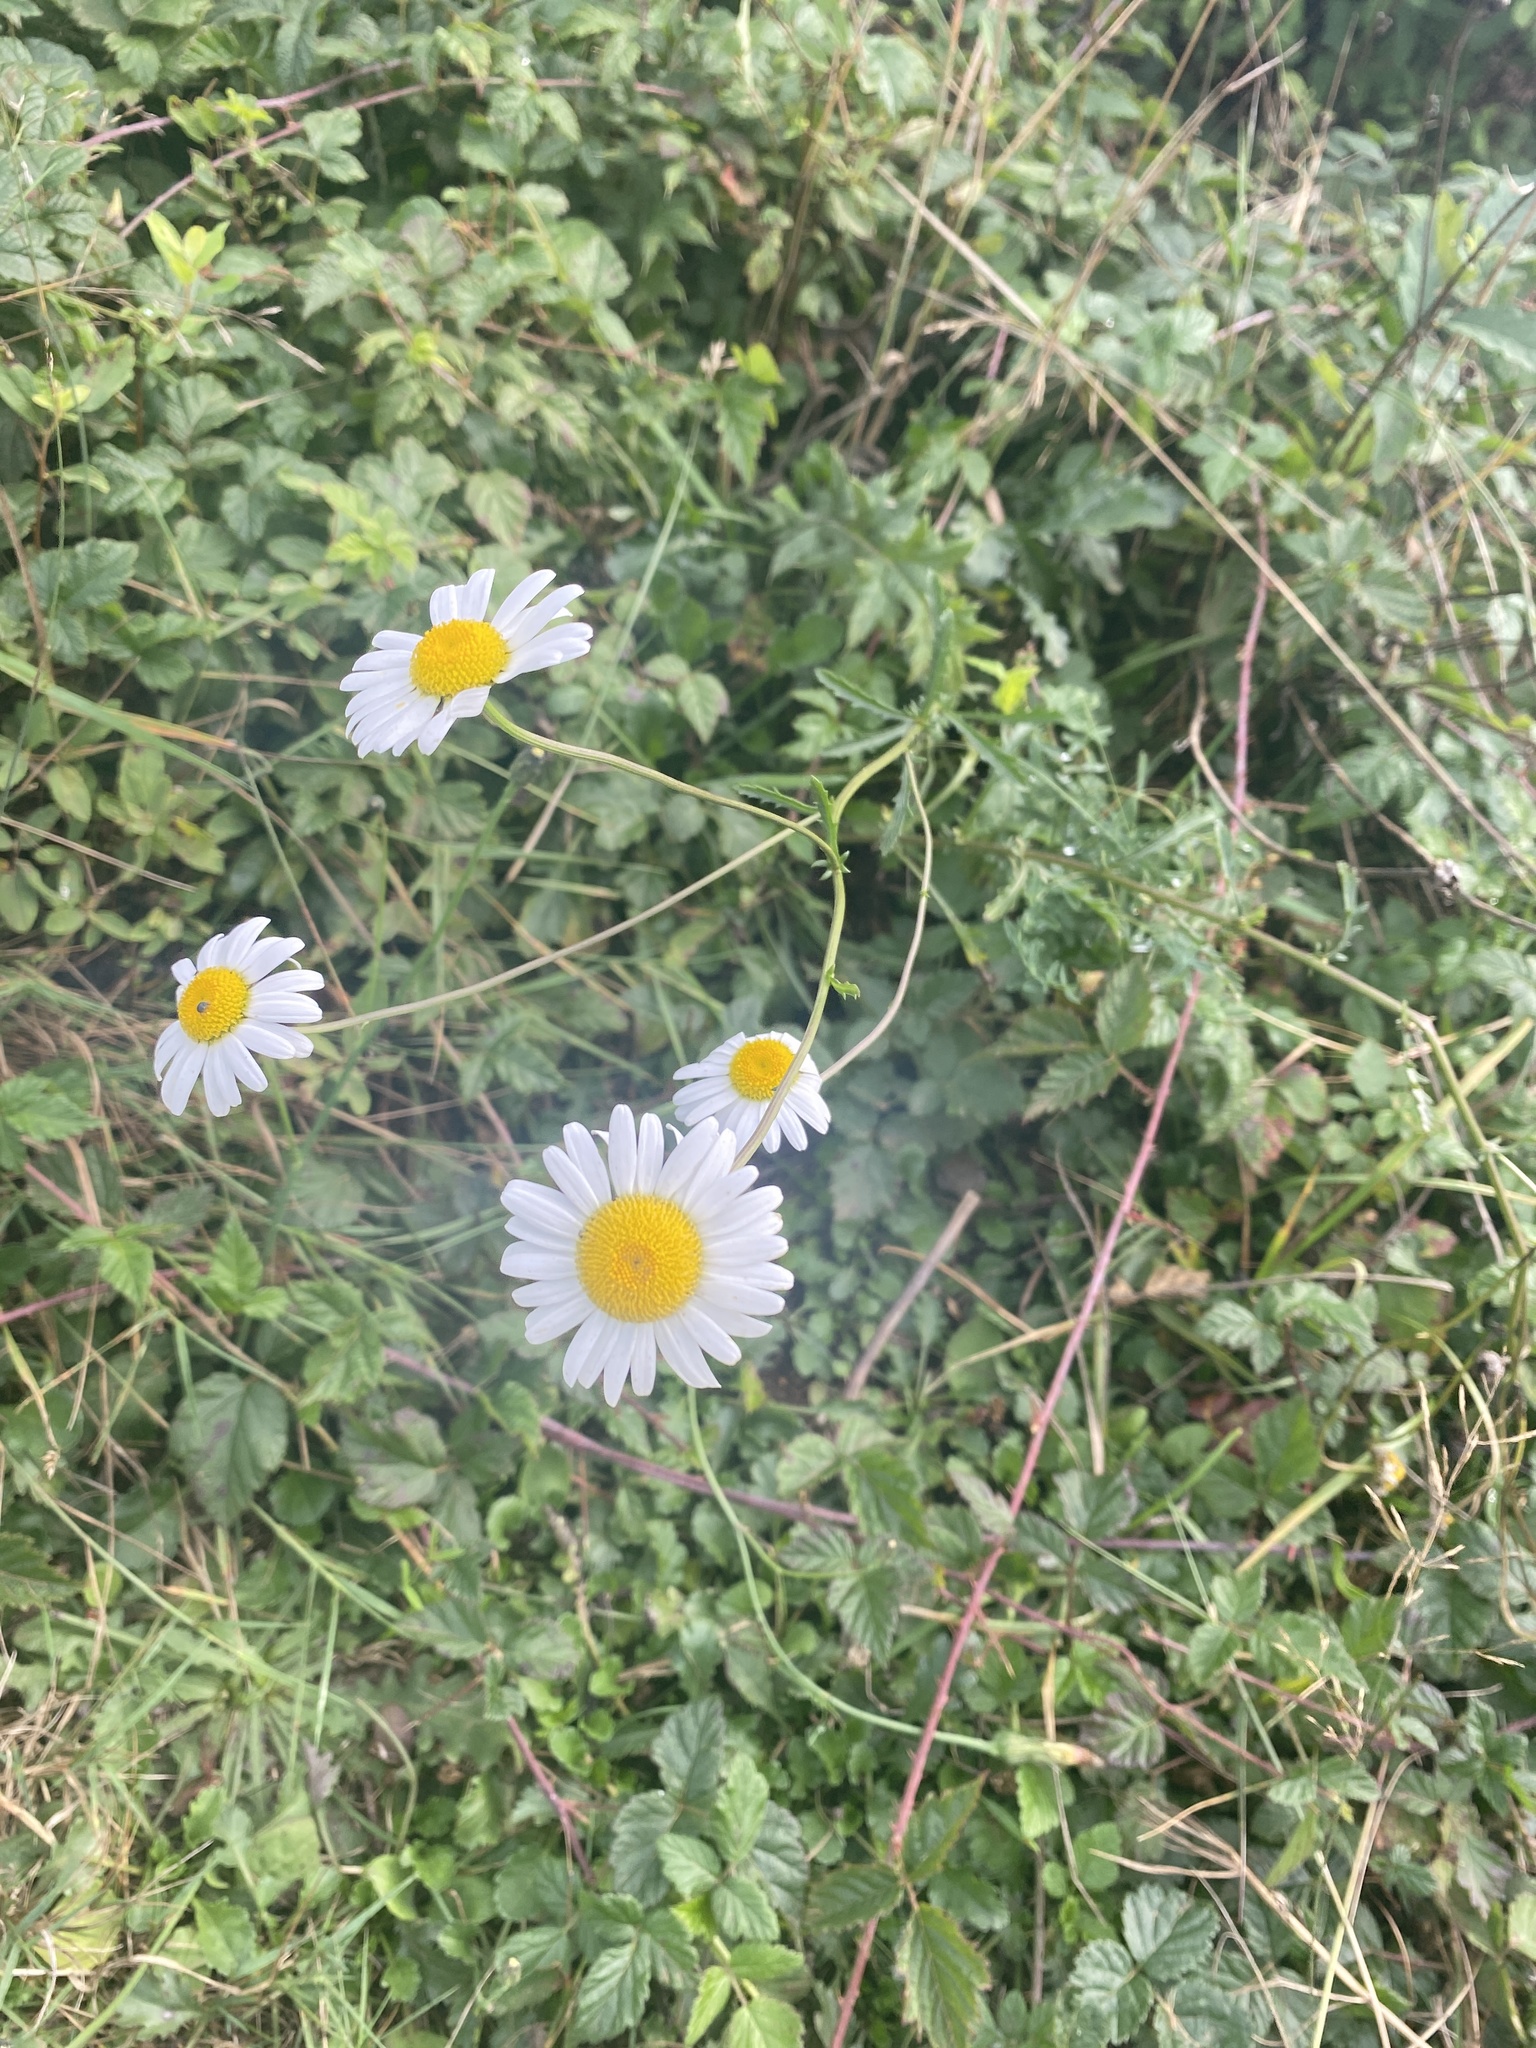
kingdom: Plantae
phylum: Tracheophyta
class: Magnoliopsida
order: Asterales
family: Asteraceae
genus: Leucanthemum
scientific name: Leucanthemum vulgare
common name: Oxeye daisy
